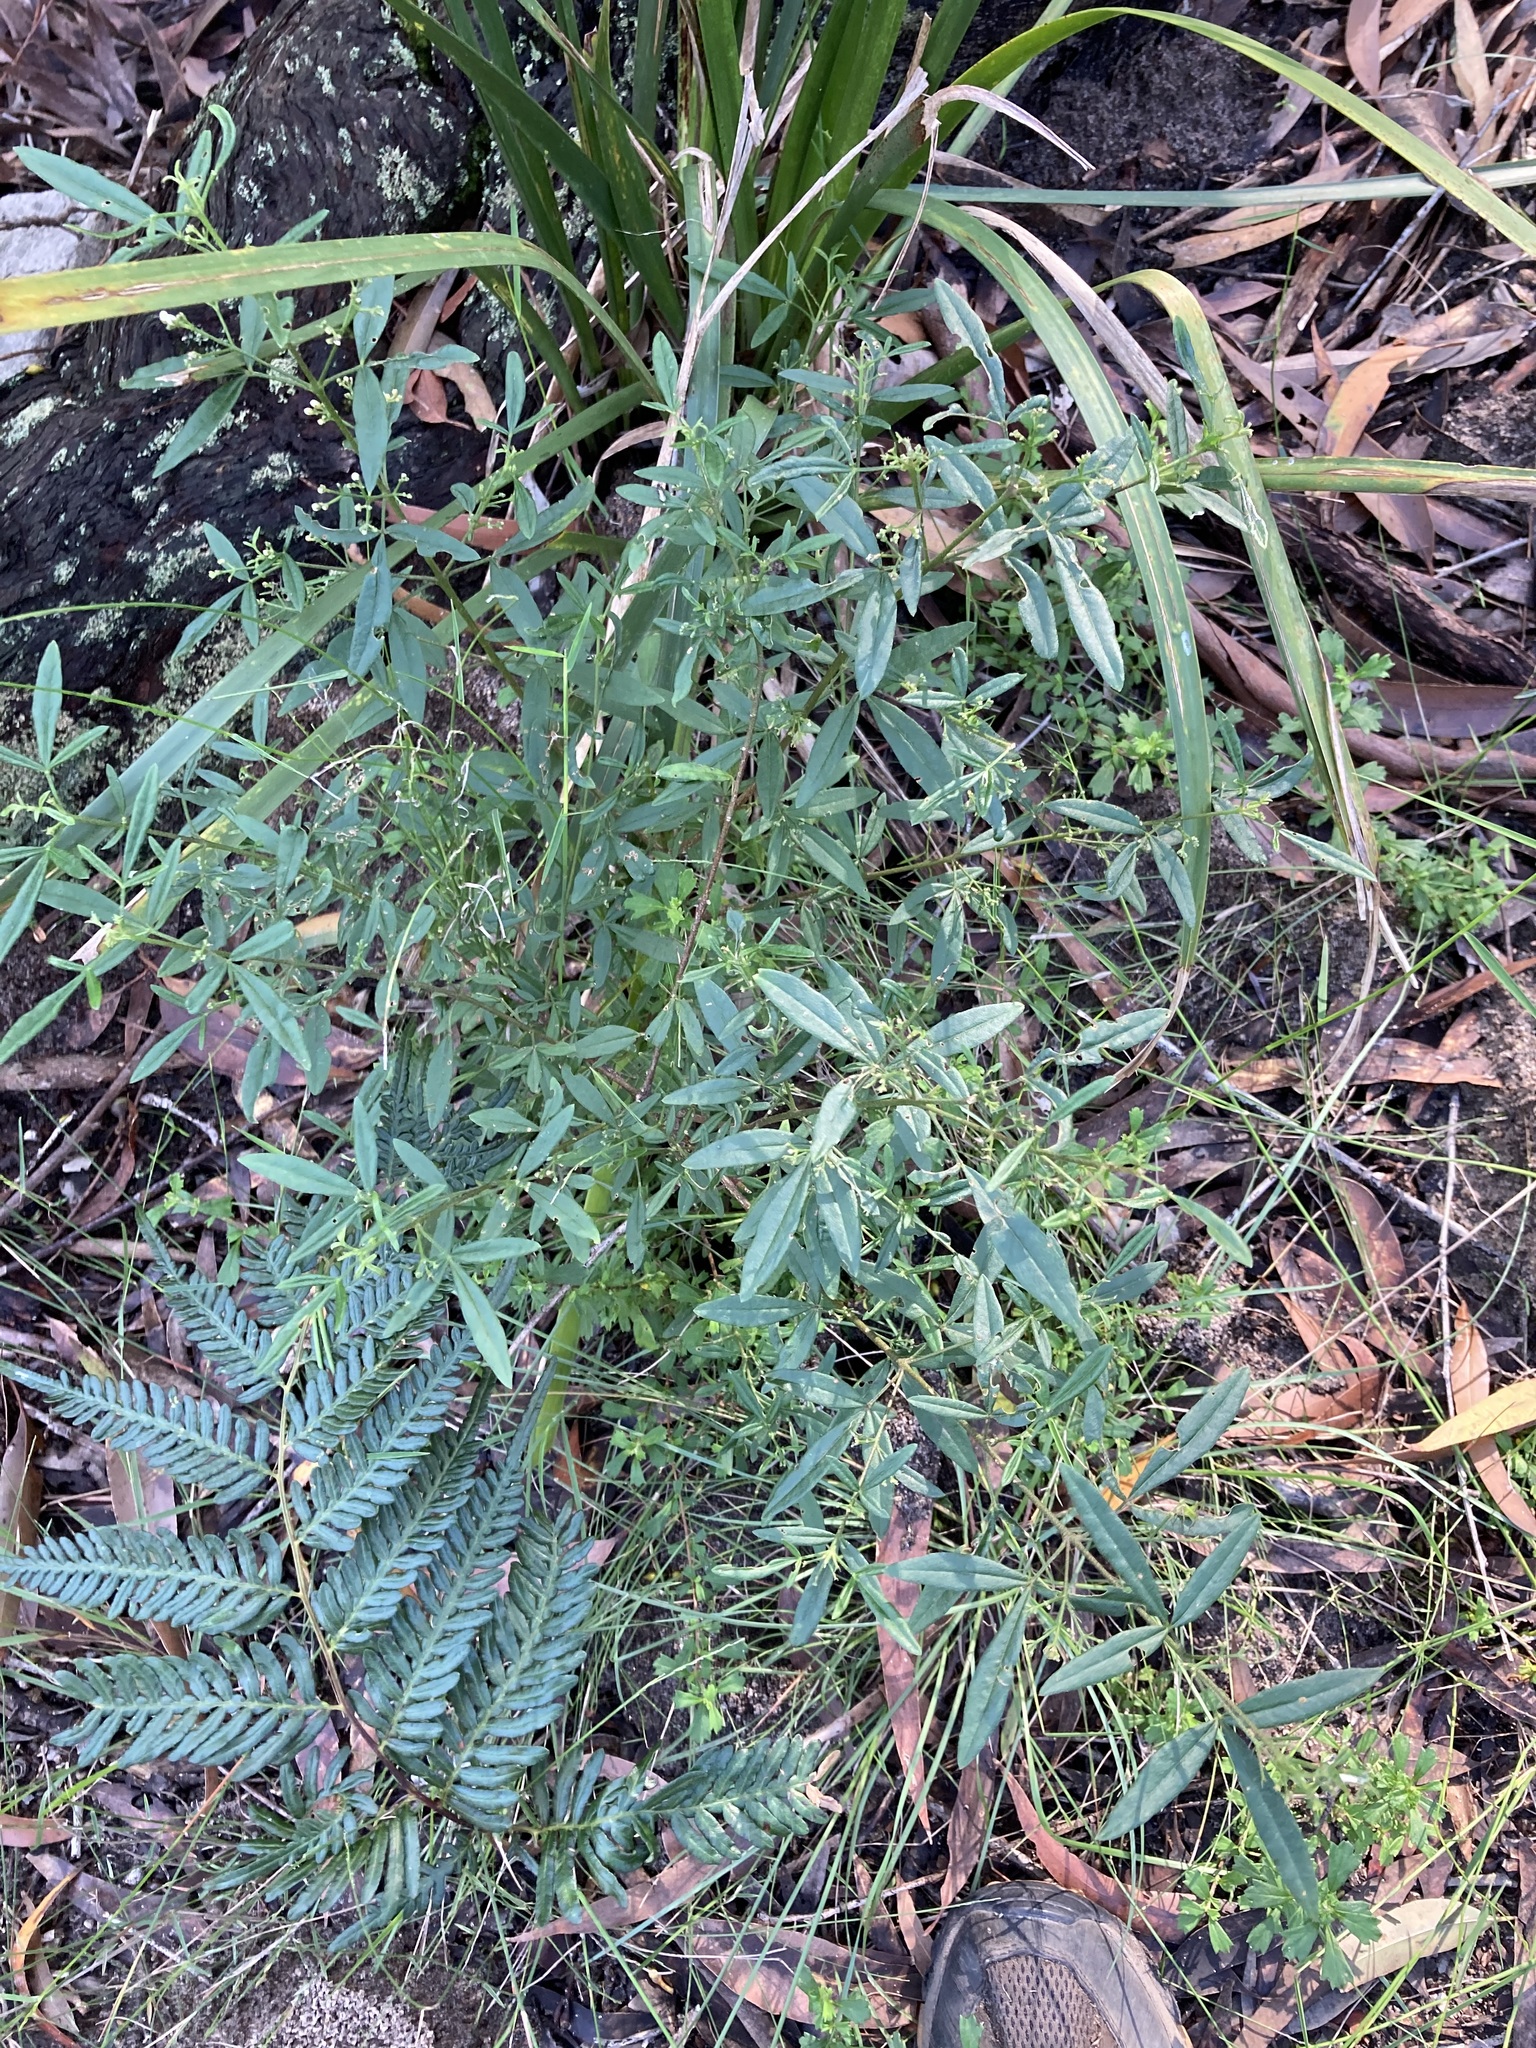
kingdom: Plantae
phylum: Tracheophyta
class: Magnoliopsida
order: Sapindales
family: Rutaceae
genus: Zieria
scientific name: Zieria smithii
